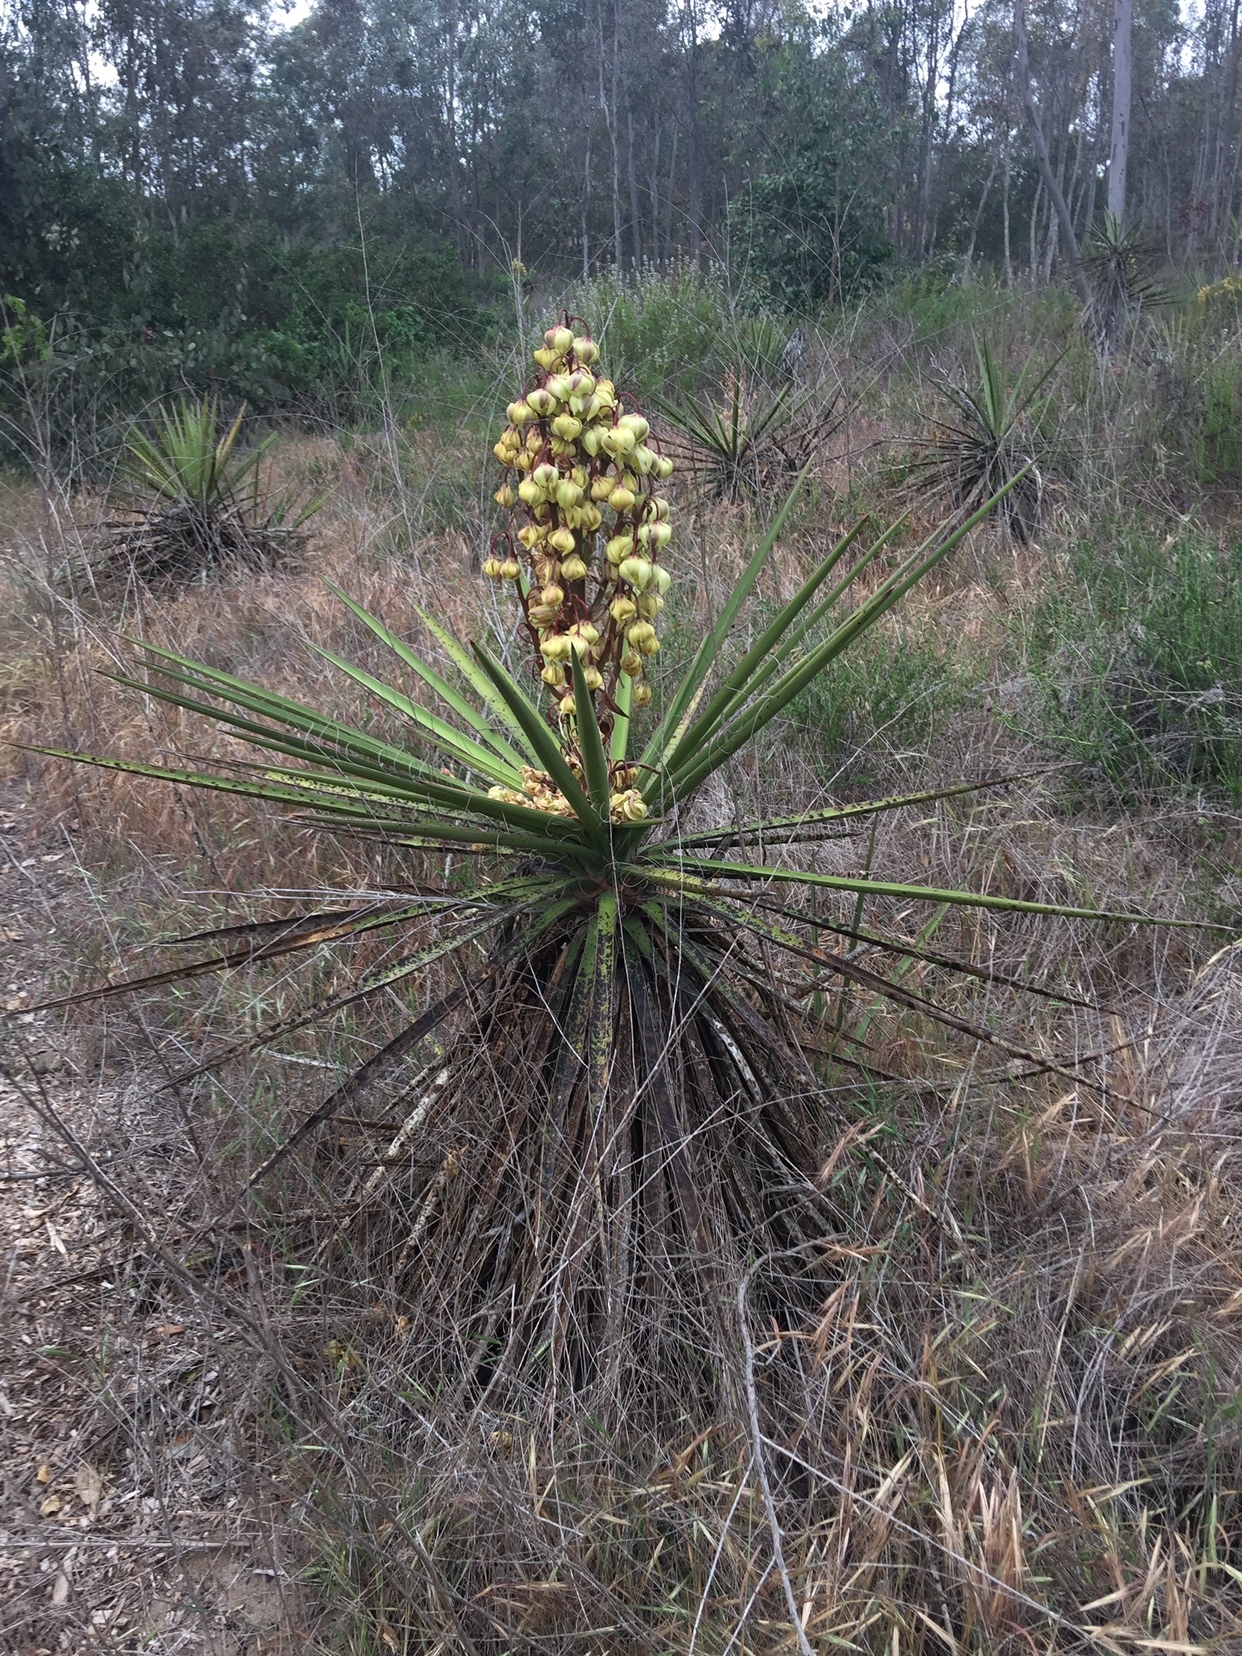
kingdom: Plantae
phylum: Tracheophyta
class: Liliopsida
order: Asparagales
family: Asparagaceae
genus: Yucca
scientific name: Yucca schidigera
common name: Mojave yucca
